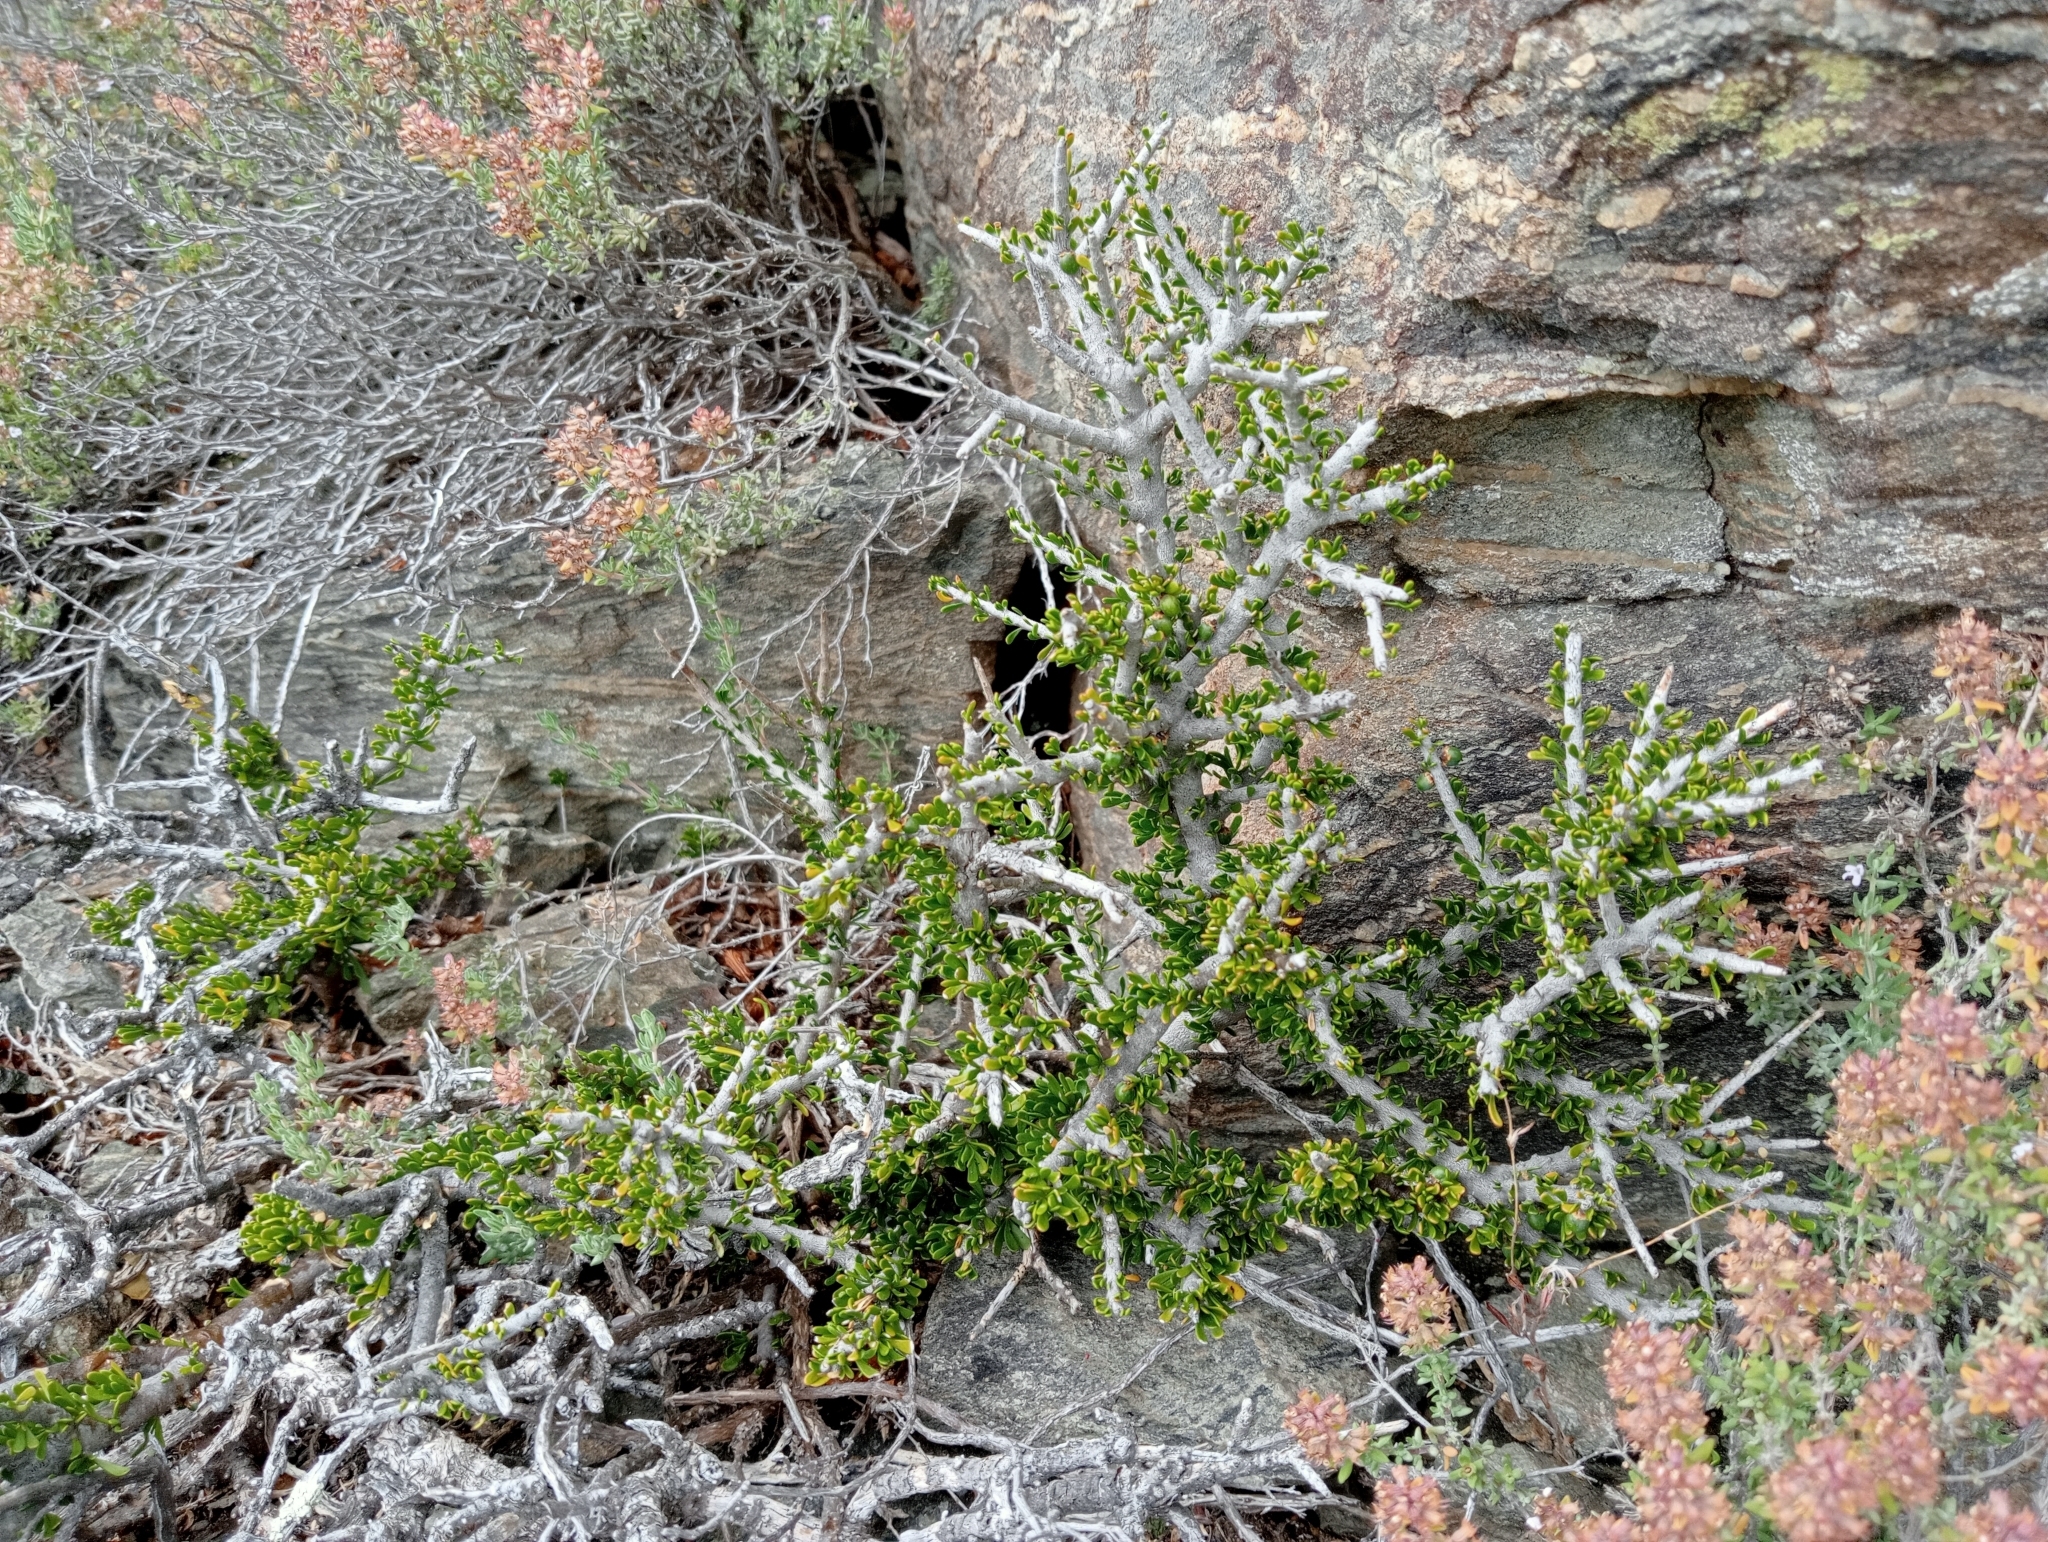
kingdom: Plantae
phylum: Tracheophyta
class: Magnoliopsida
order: Malpighiales
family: Violaceae
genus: Melicytus
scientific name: Melicytus alpinus
